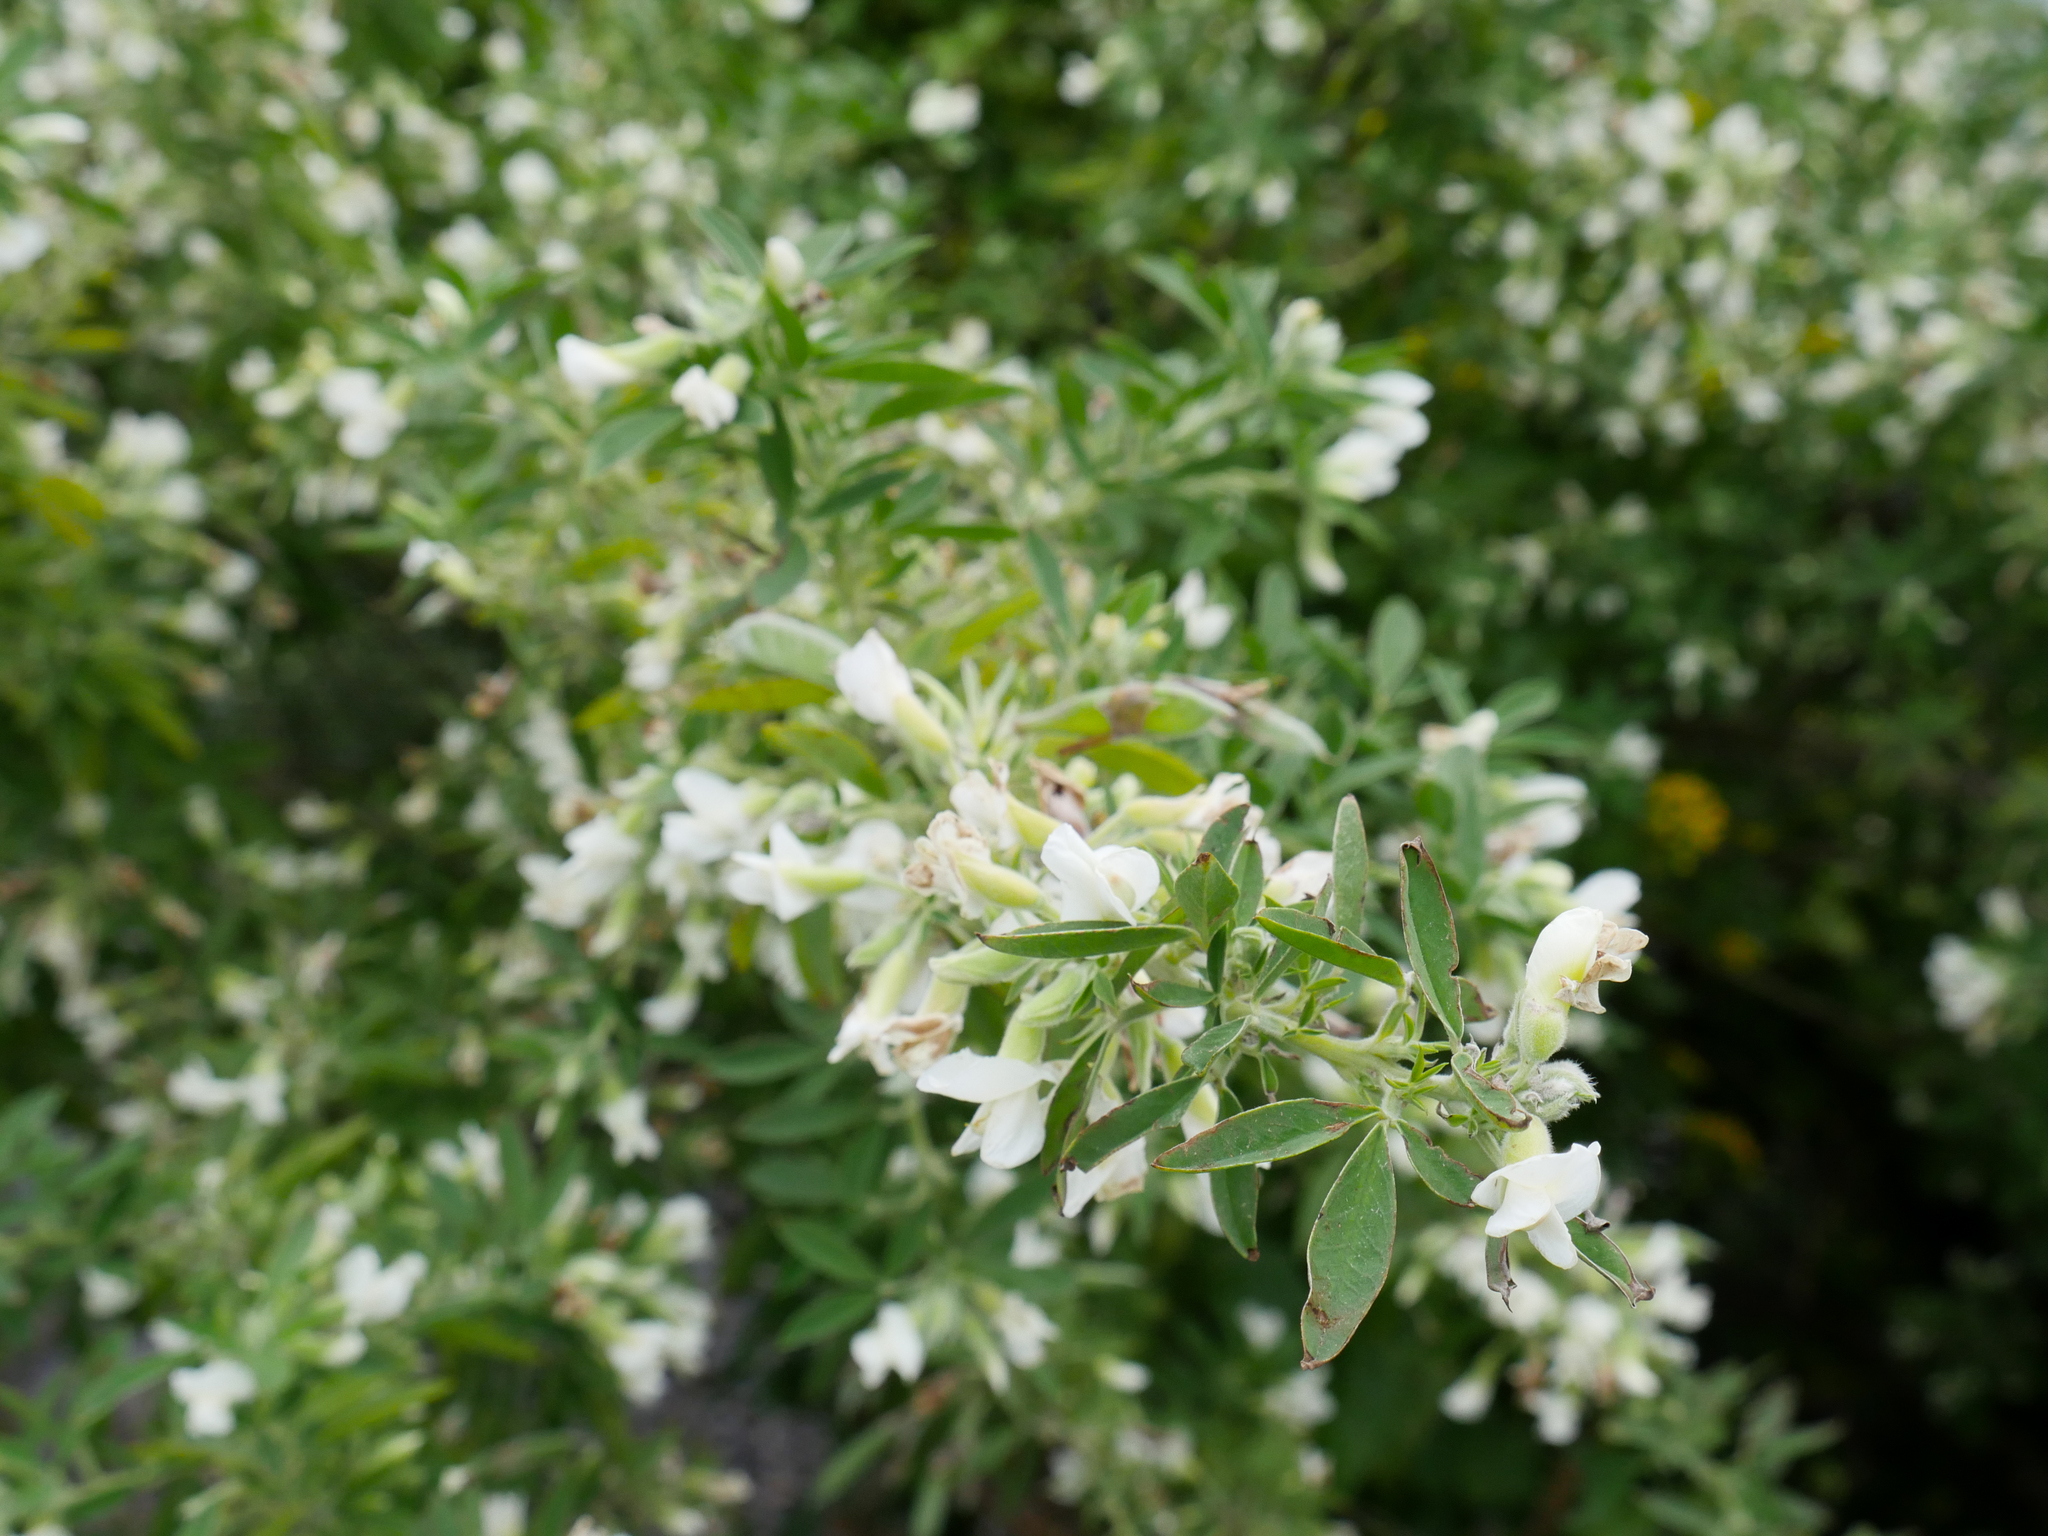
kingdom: Plantae
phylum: Tracheophyta
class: Magnoliopsida
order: Fabales
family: Fabaceae
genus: Chamaecytisus
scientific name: Chamaecytisus prolifer
